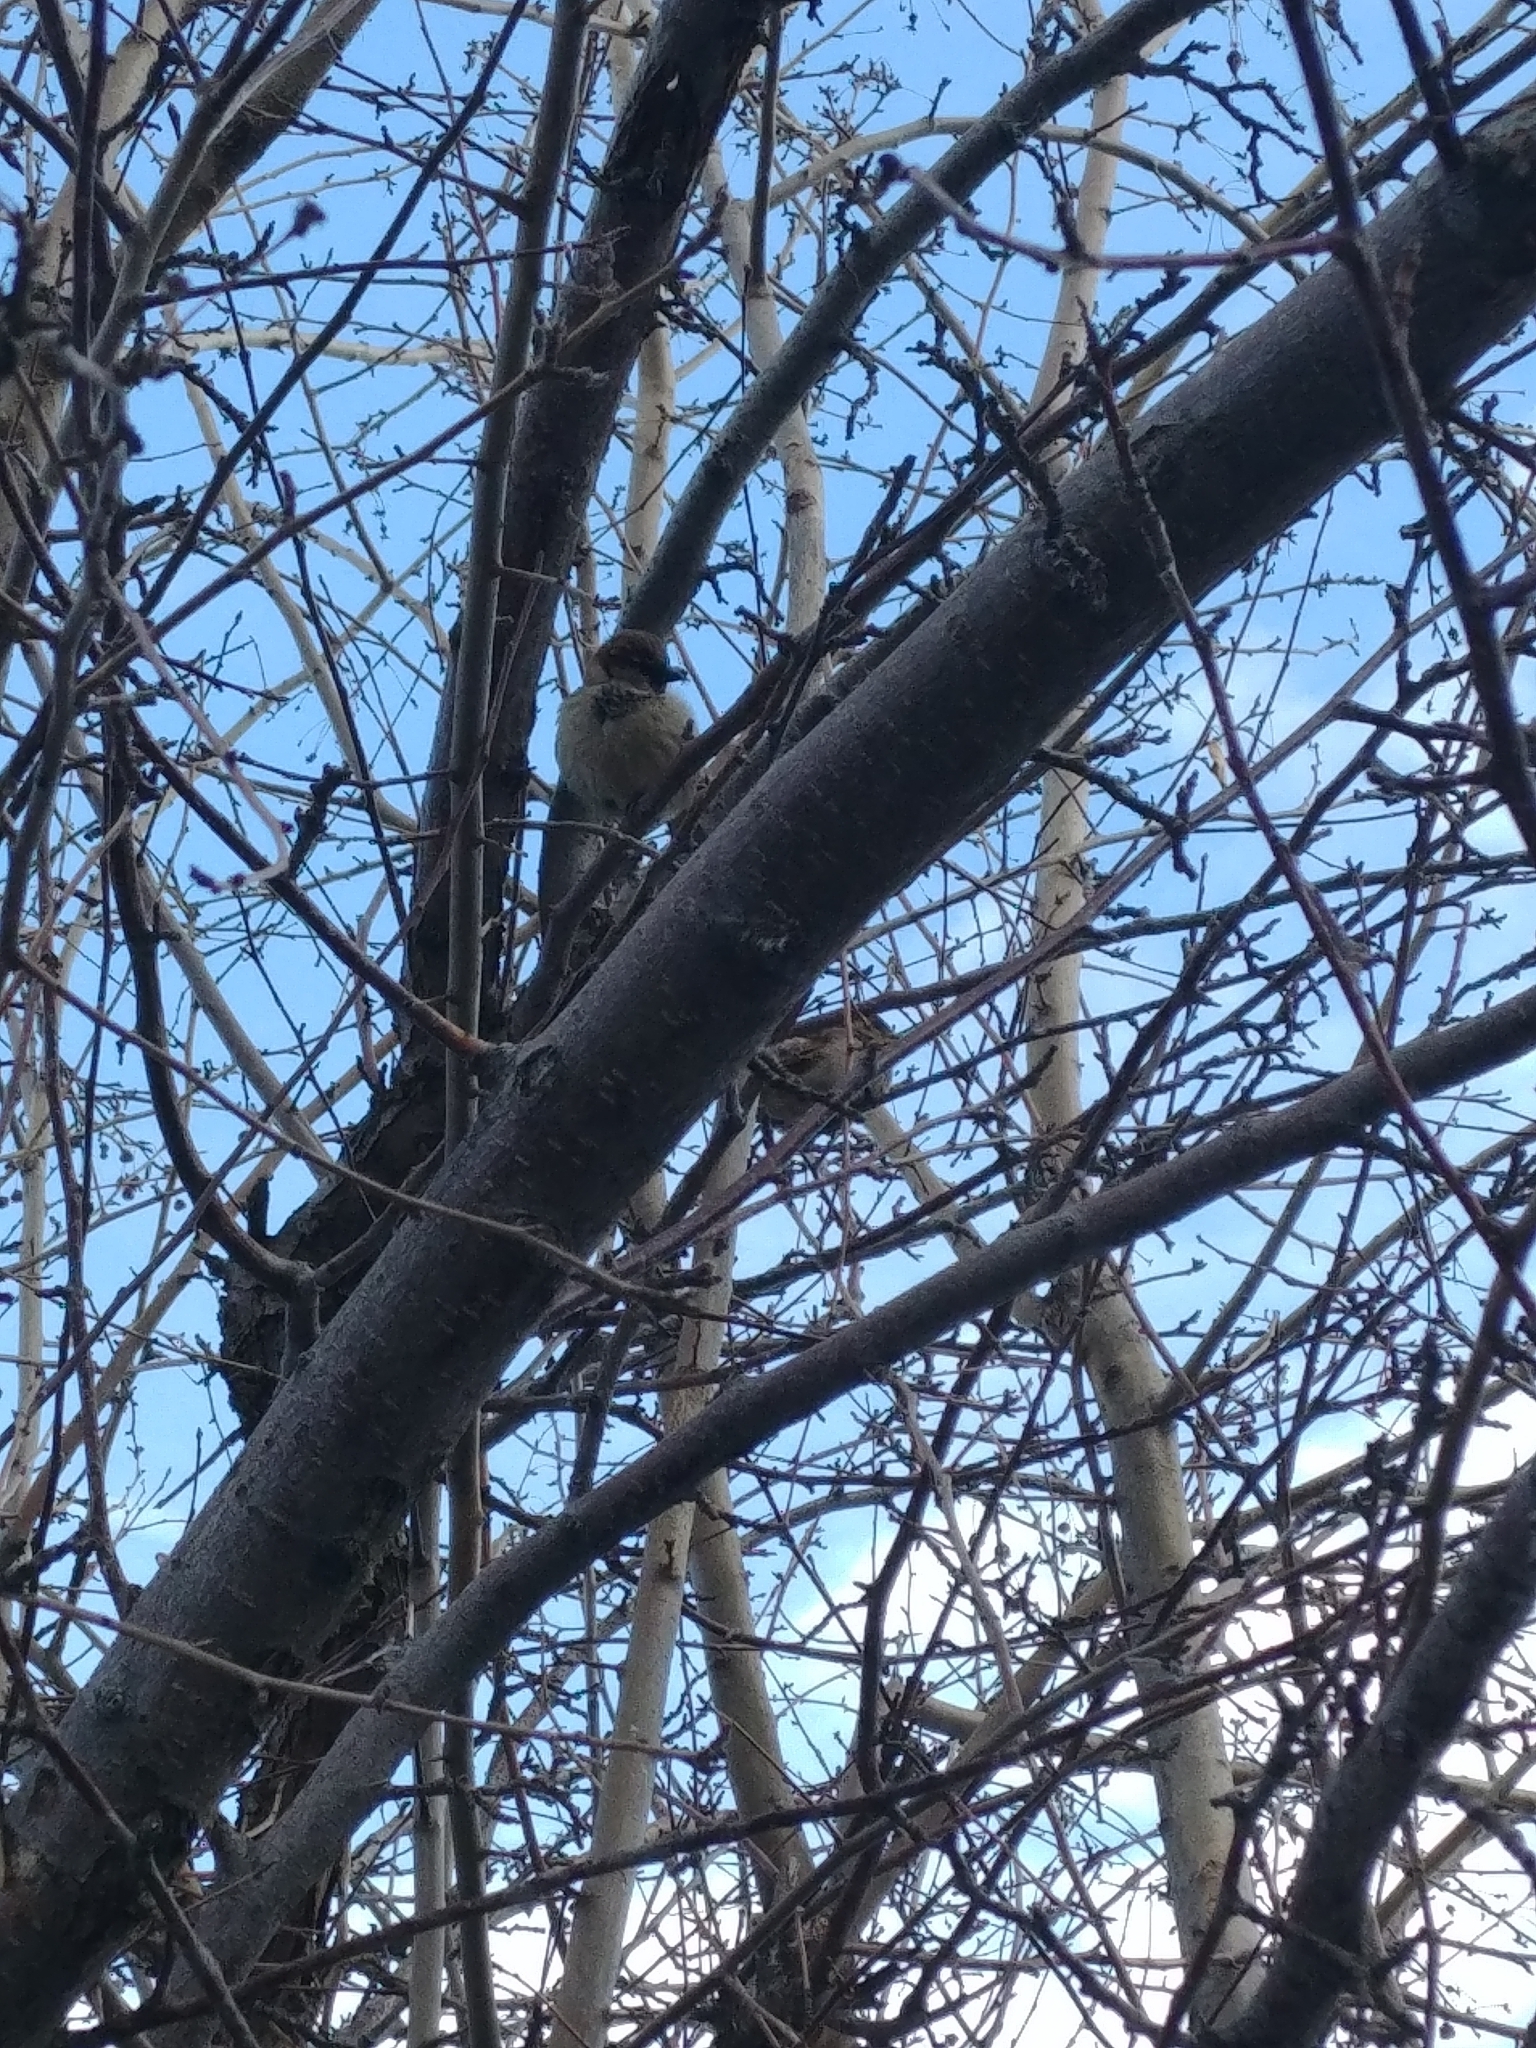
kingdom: Animalia
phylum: Chordata
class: Aves
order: Passeriformes
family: Passeridae
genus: Passer
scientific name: Passer domesticus
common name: House sparrow
